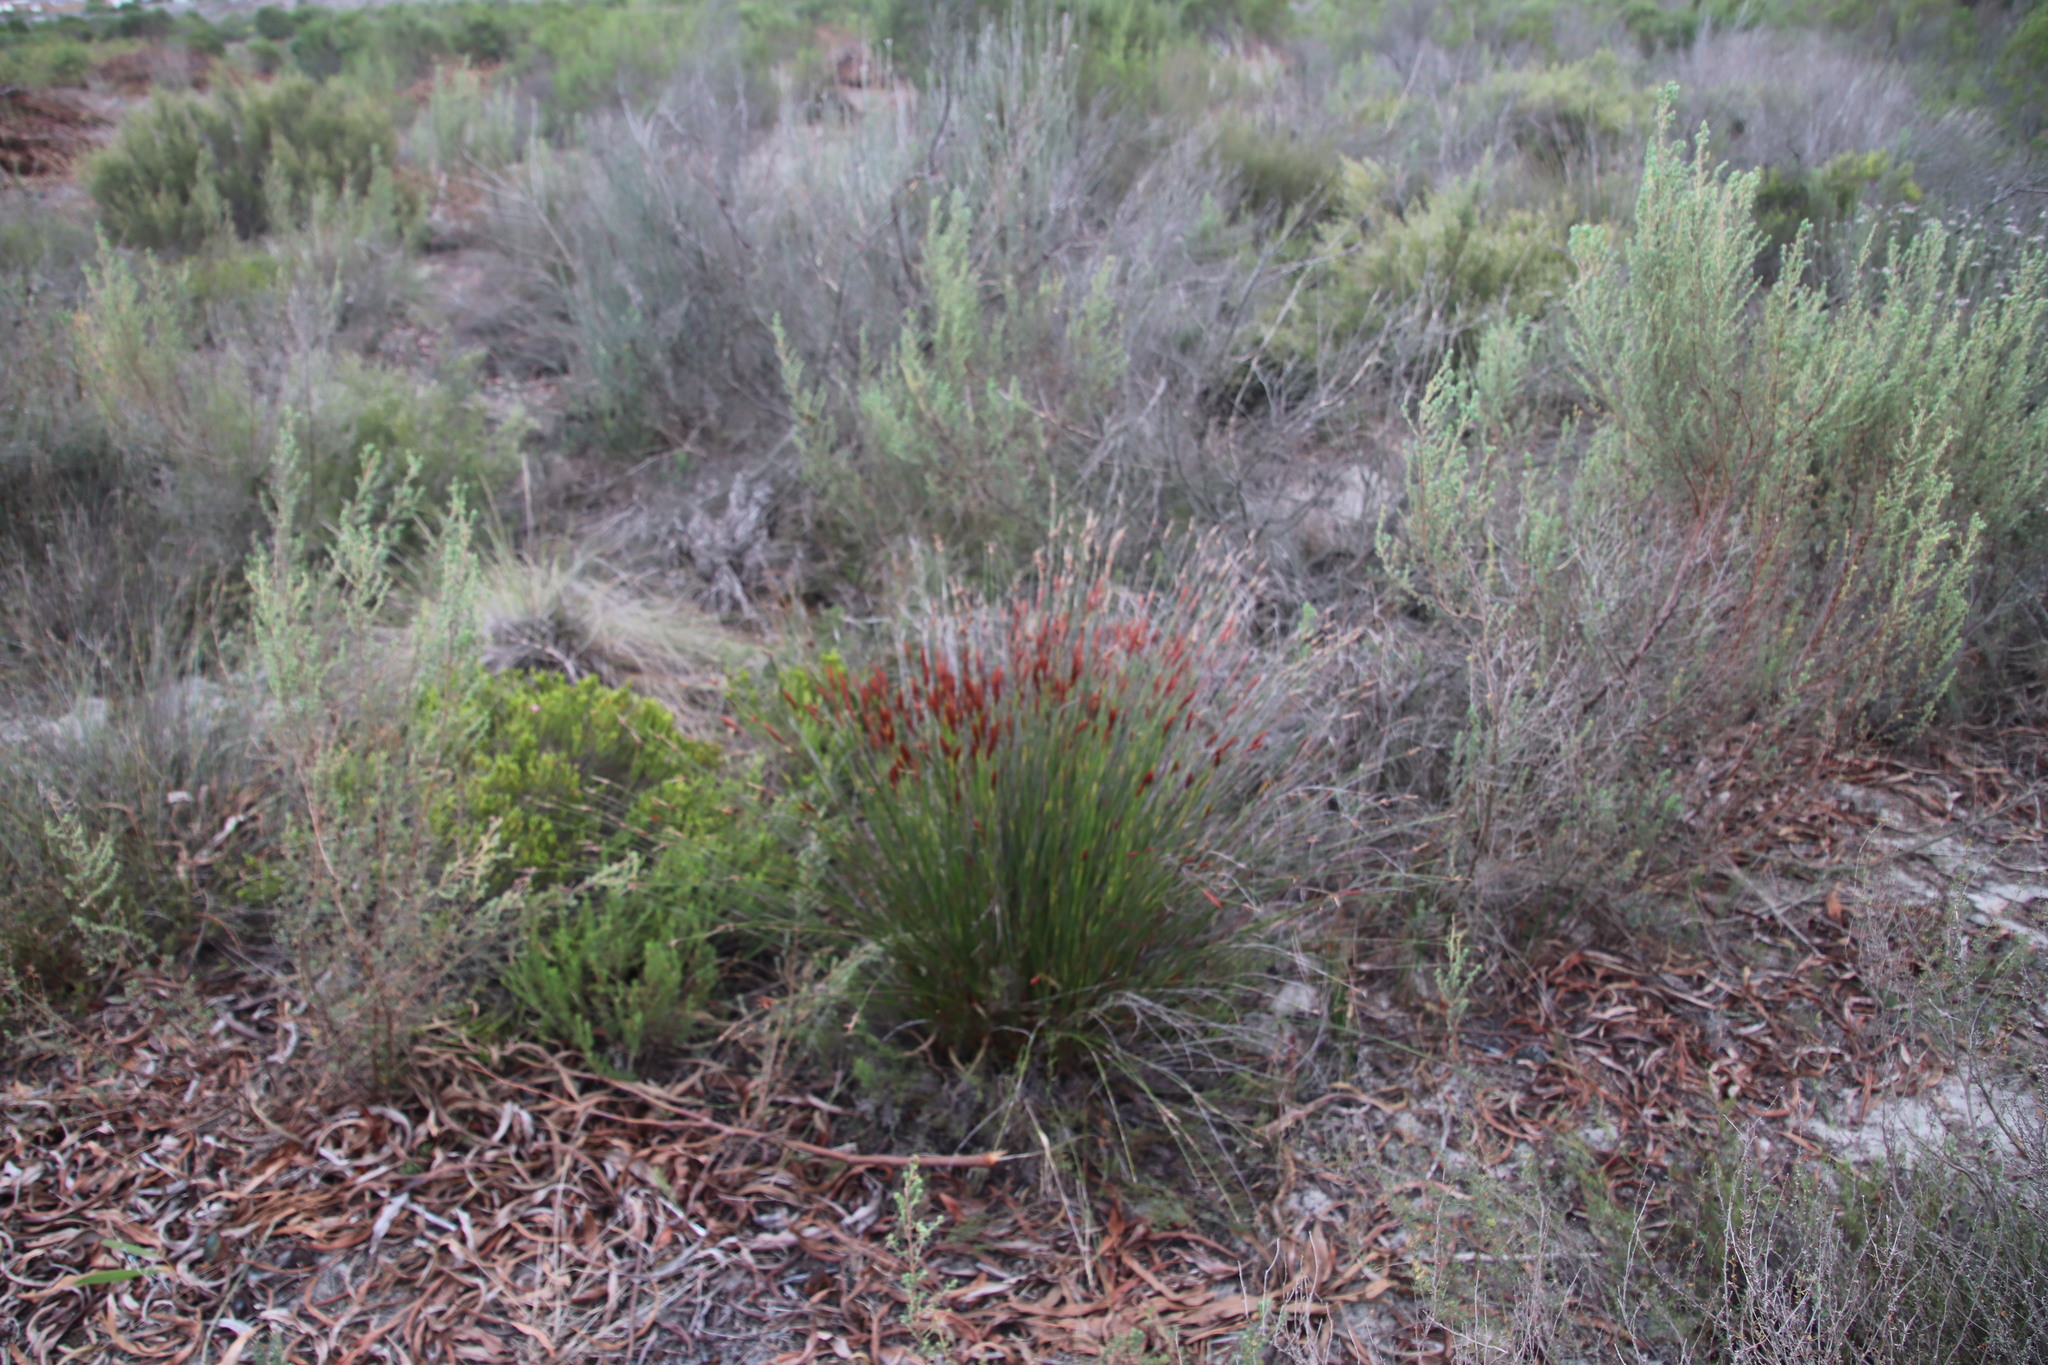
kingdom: Plantae
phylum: Tracheophyta
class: Liliopsida
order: Poales
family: Restionaceae
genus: Staberoha
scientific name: Staberoha distachyos
